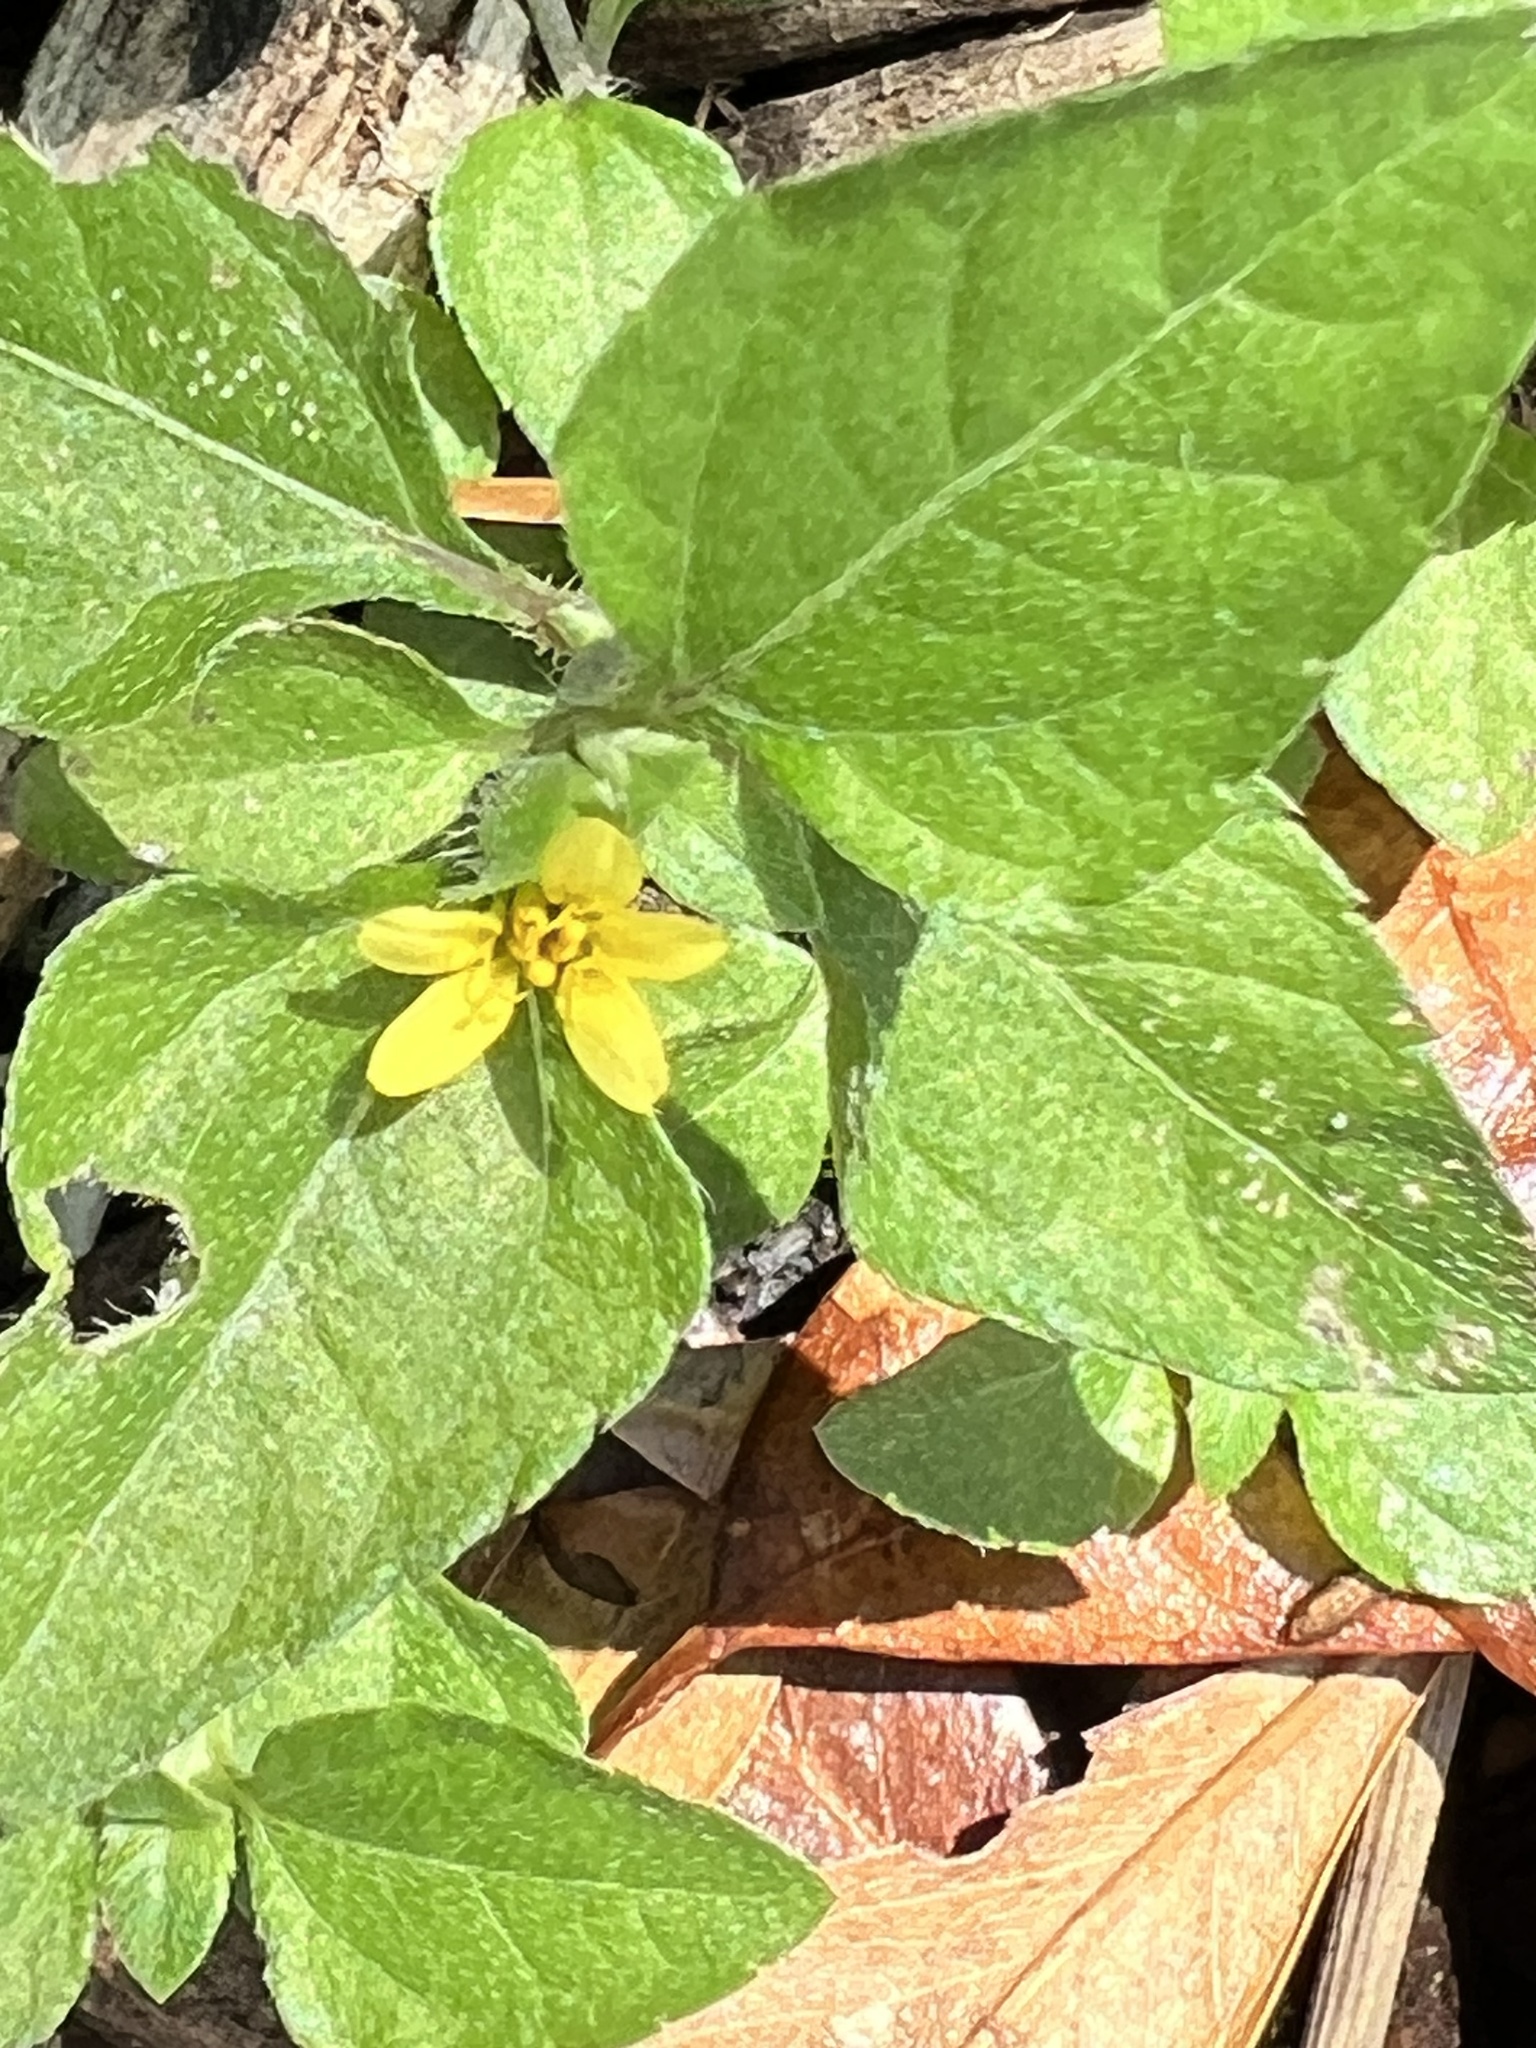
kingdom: Plantae
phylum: Tracheophyta
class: Magnoliopsida
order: Asterales
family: Asteraceae
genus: Calyptocarpus
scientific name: Calyptocarpus vialis
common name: Straggler daisy
